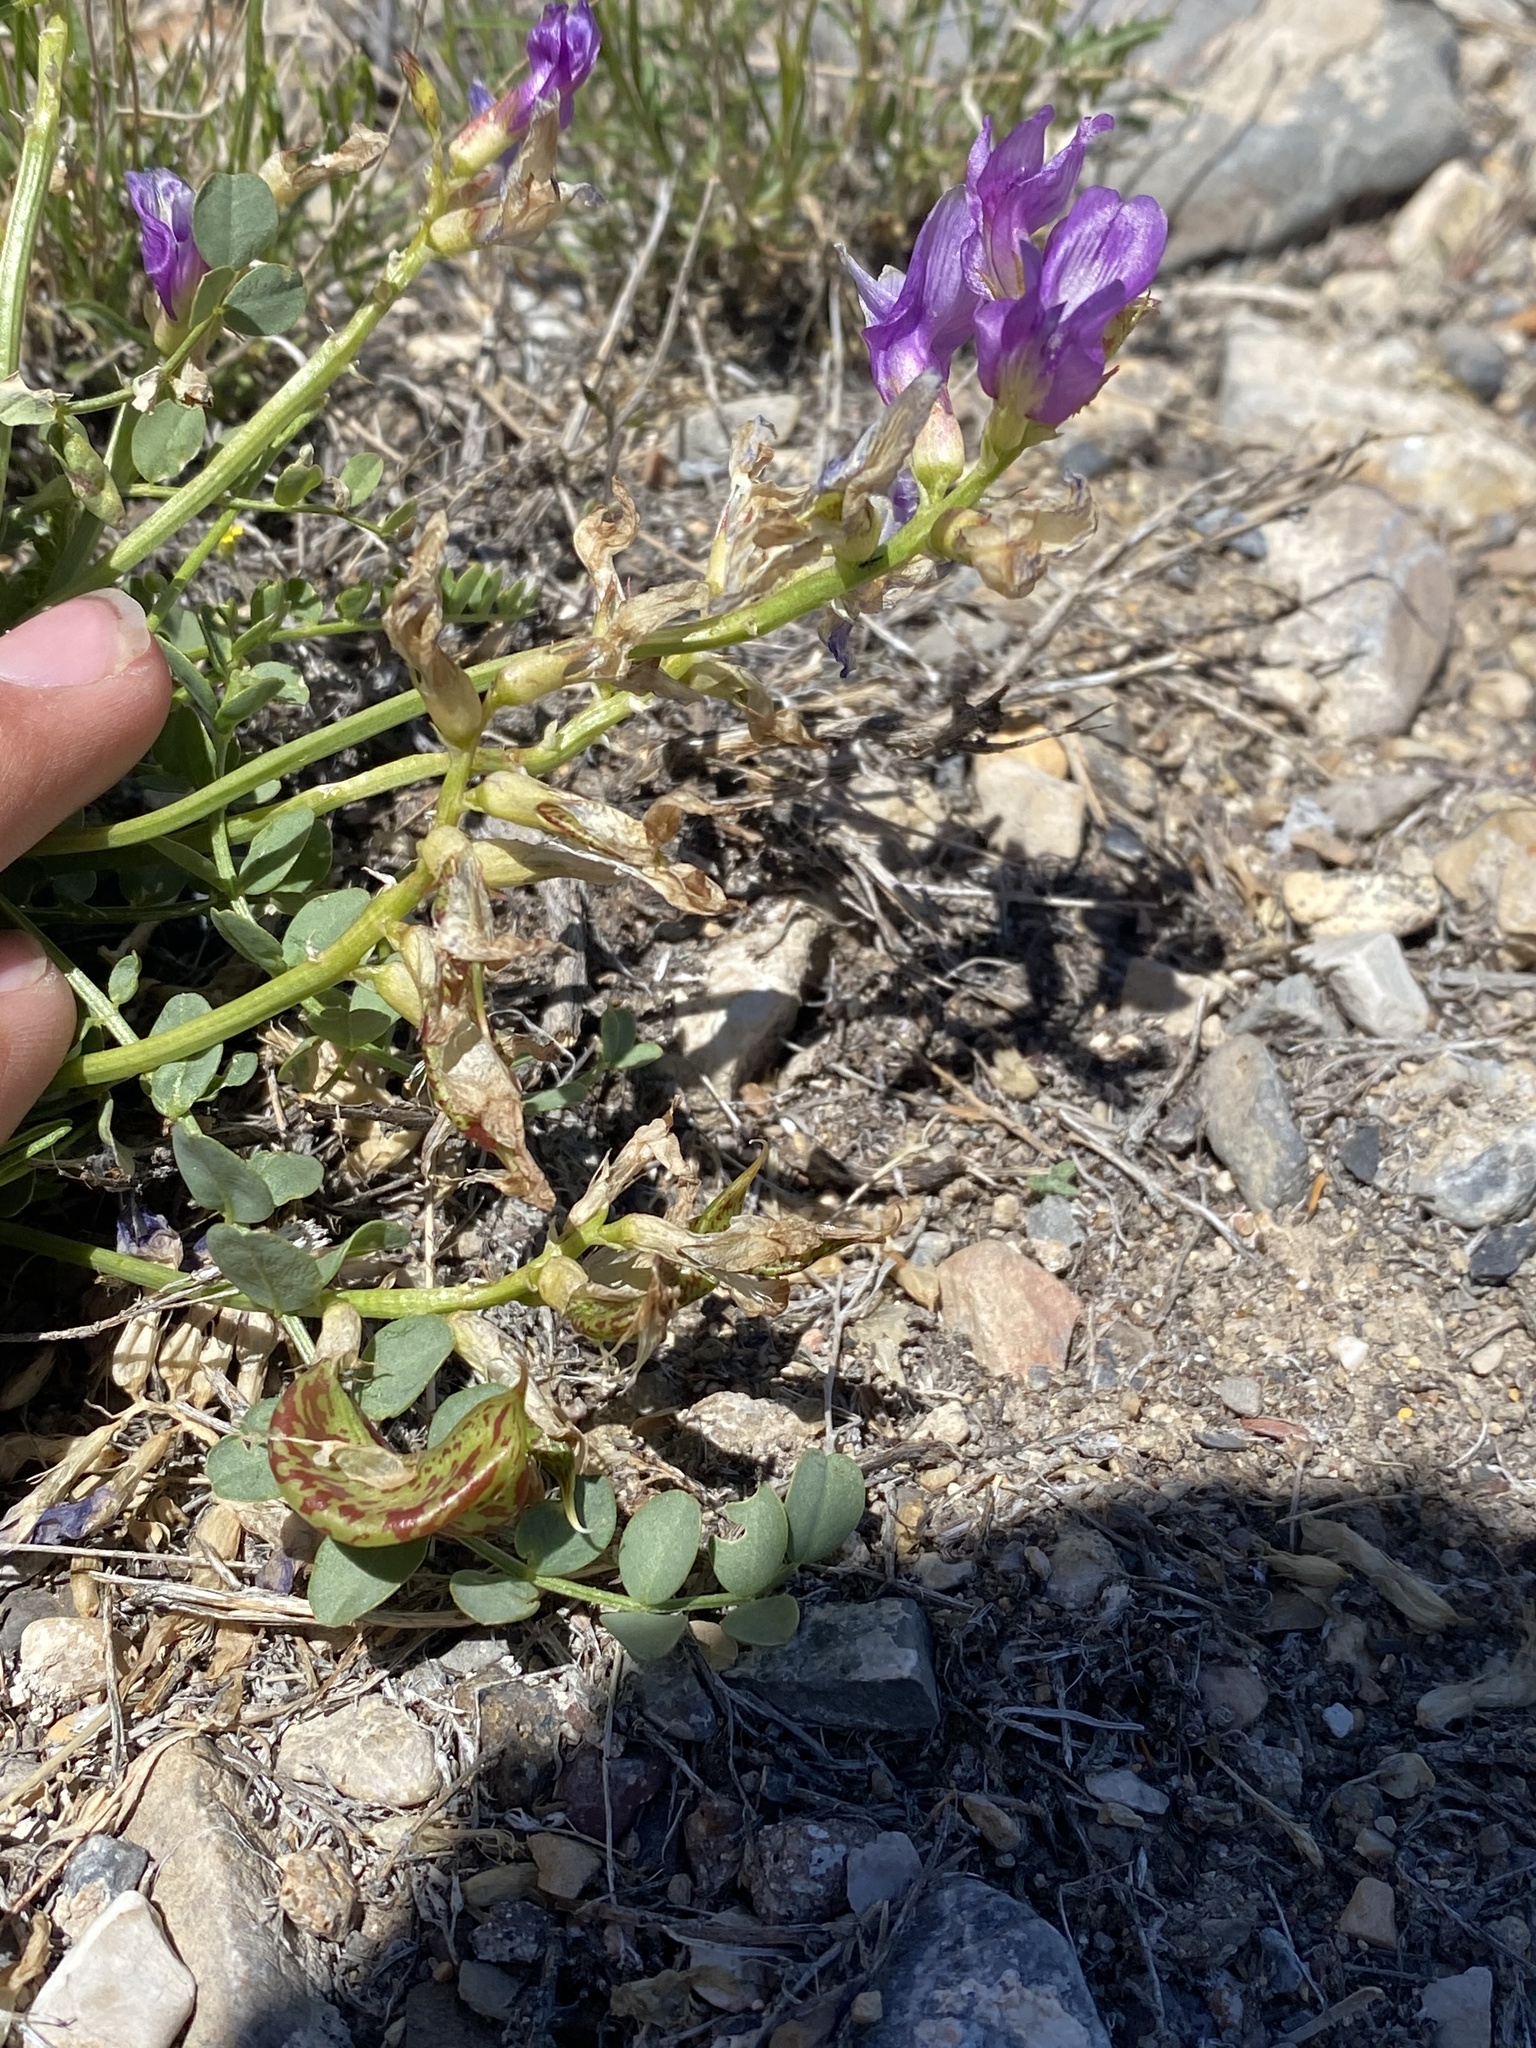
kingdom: Plantae
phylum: Tracheophyta
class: Magnoliopsida
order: Fabales
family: Fabaceae
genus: Astragalus
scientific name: Astragalus beckwithii
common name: Beckwith's milk-vetch
